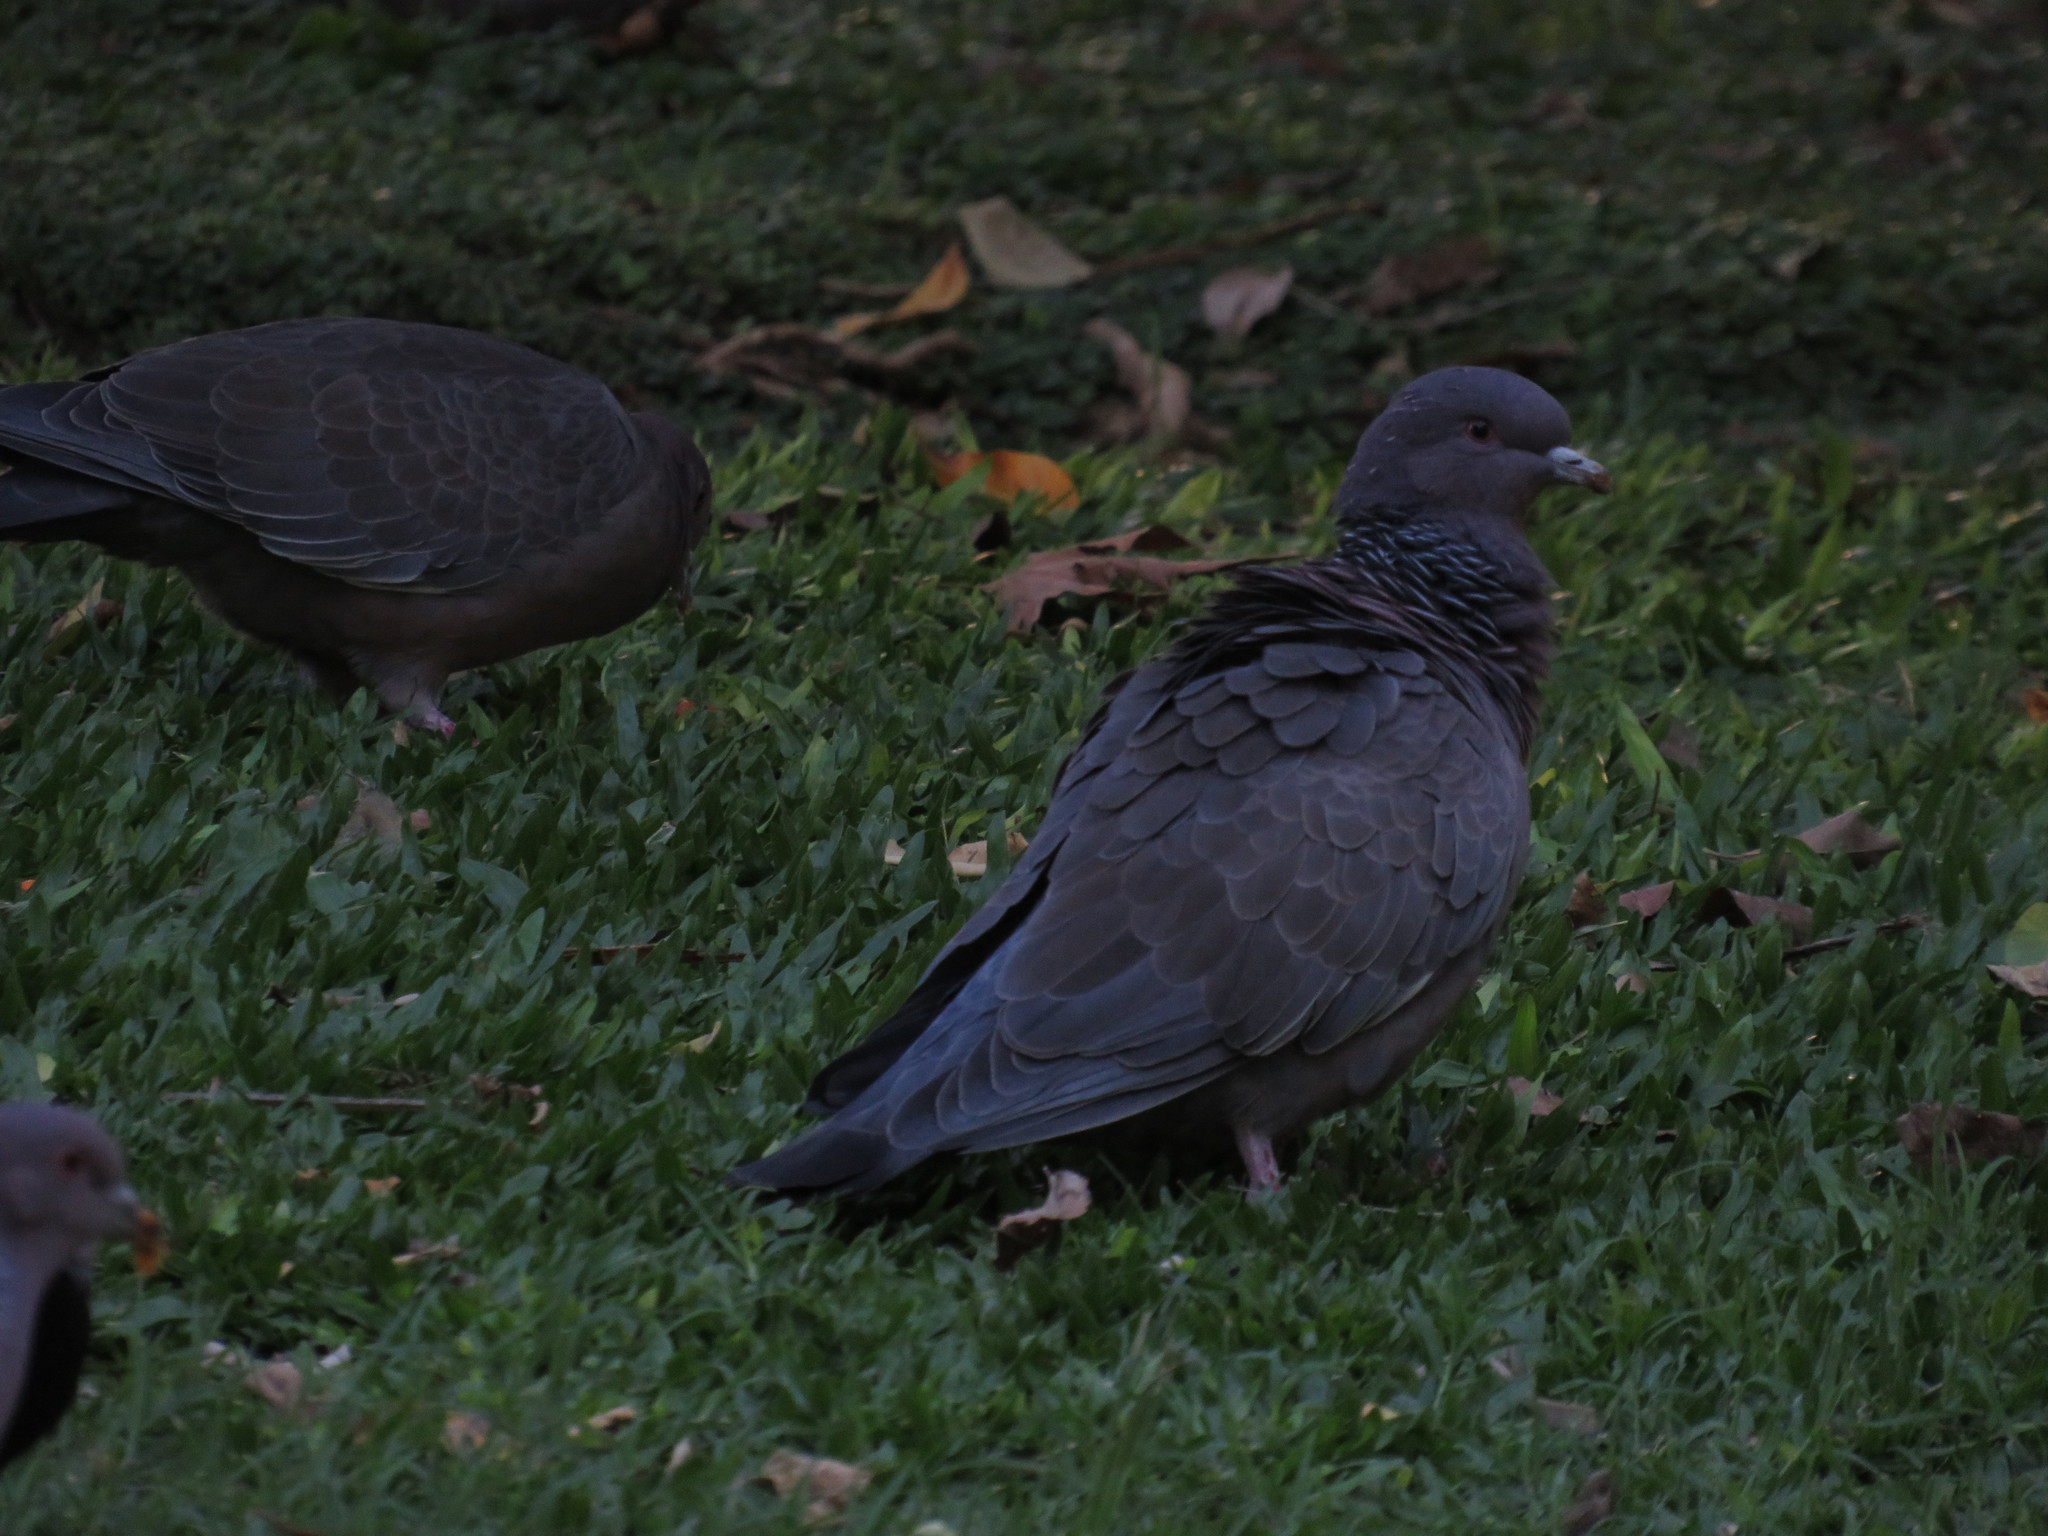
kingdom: Animalia
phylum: Chordata
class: Aves
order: Columbiformes
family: Columbidae
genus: Patagioenas
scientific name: Patagioenas picazuro
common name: Picazuro pigeon
